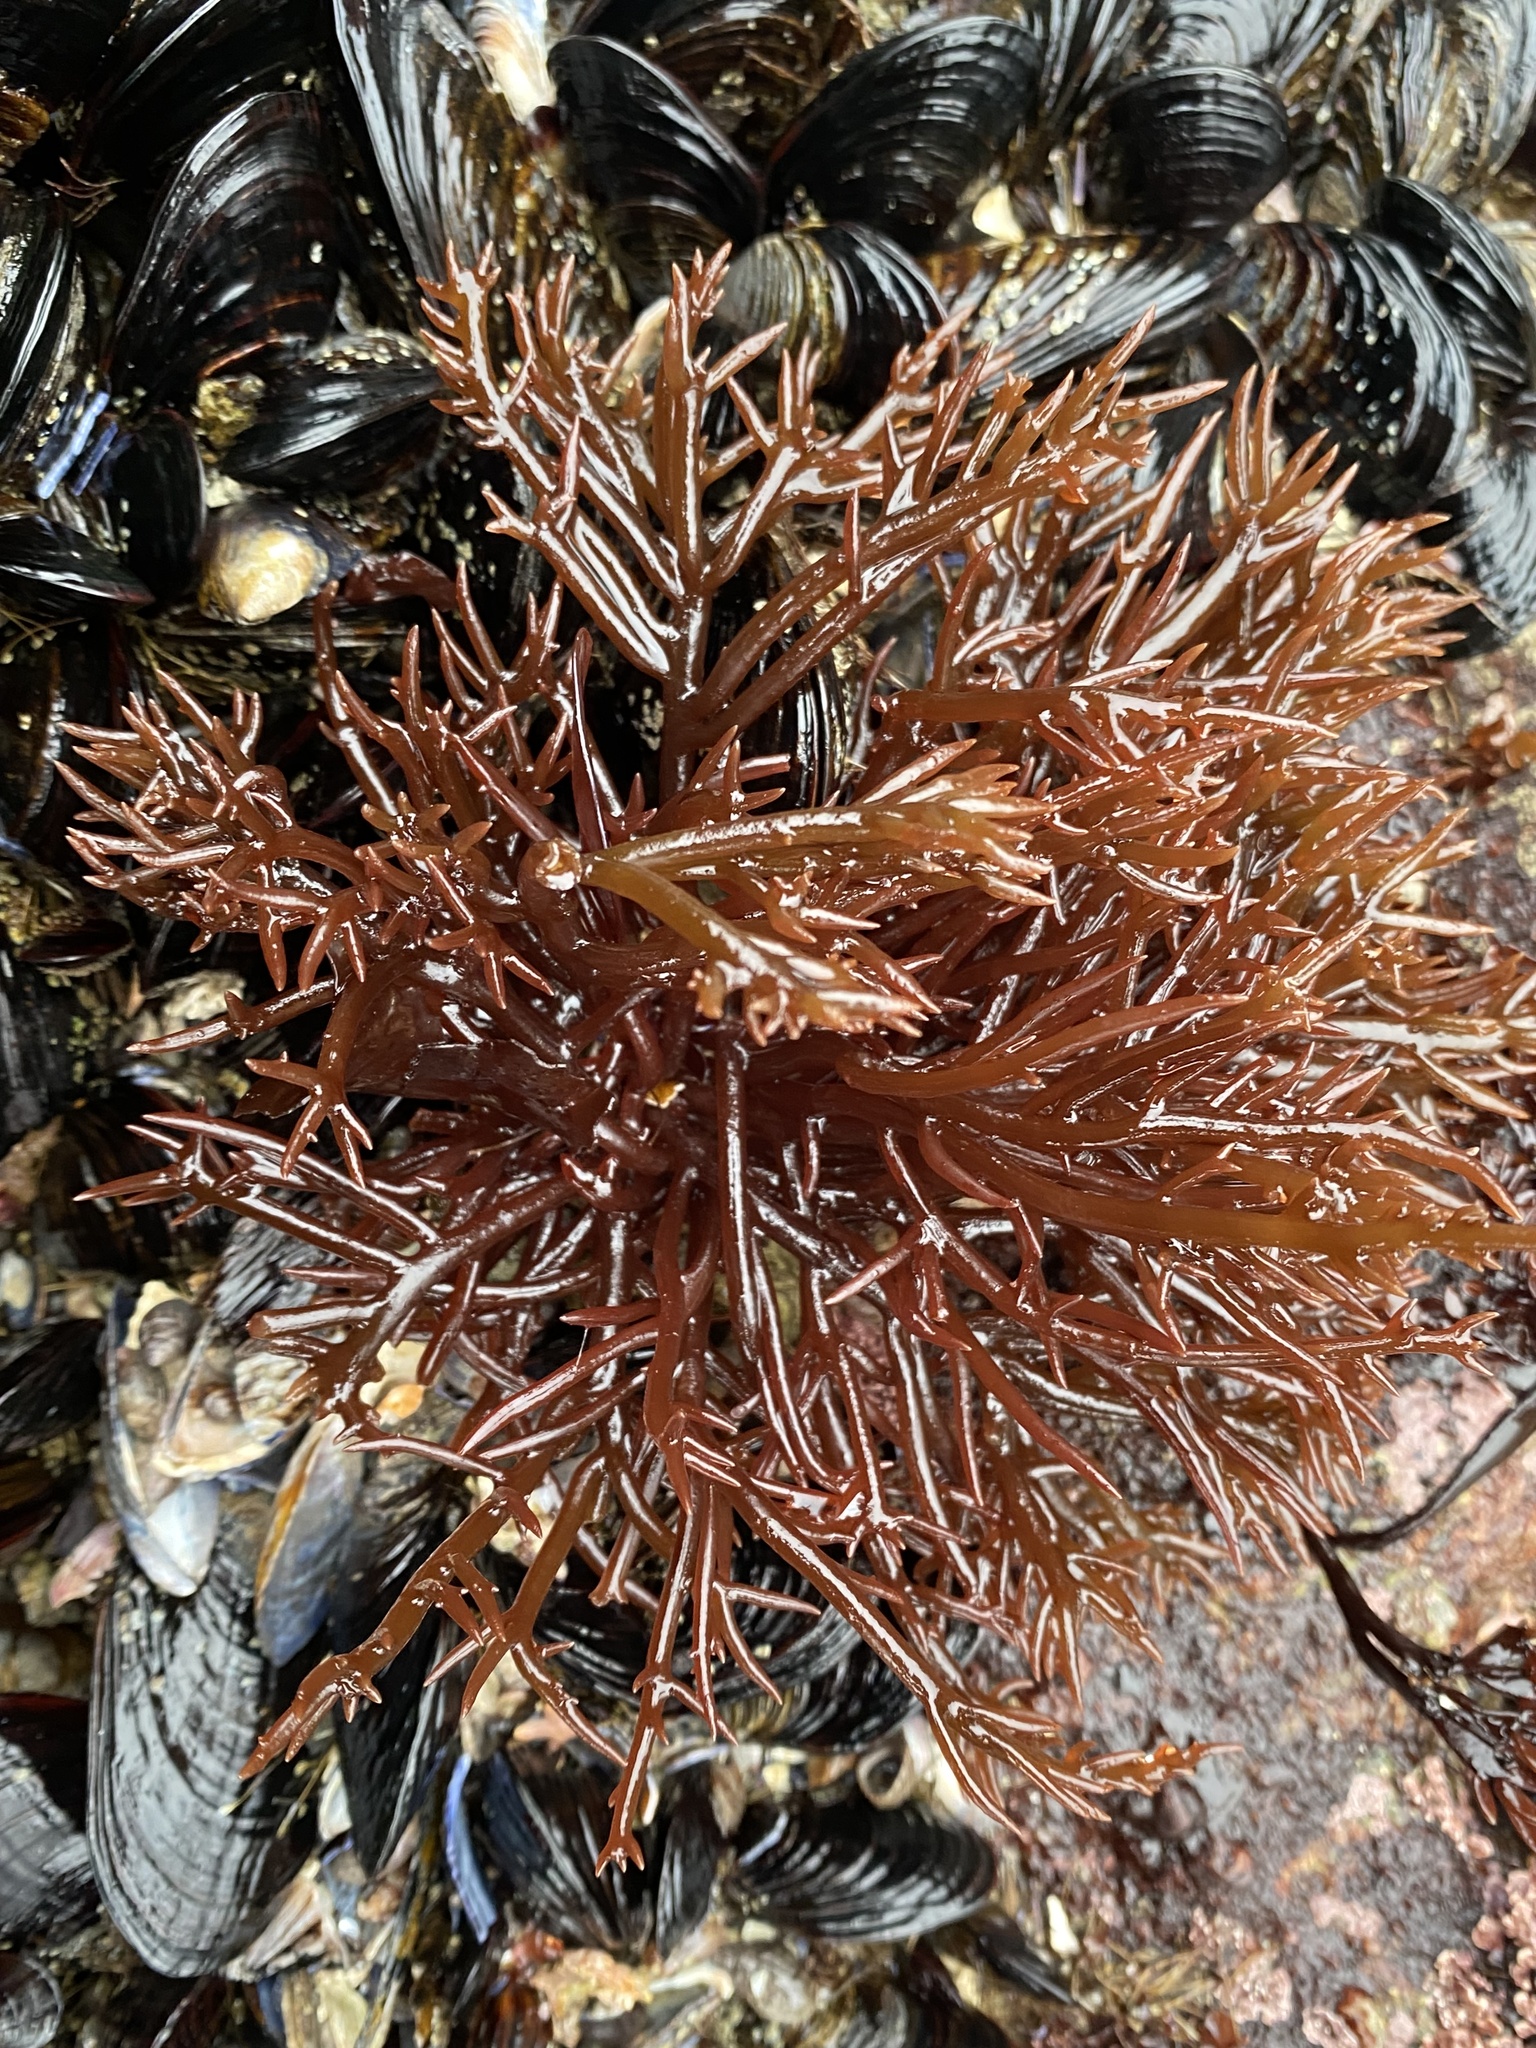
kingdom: Plantae
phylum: Rhodophyta
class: Florideophyceae
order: Gigartinales
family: Solieriaceae
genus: Sarcodiotheca
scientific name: Sarcodiotheca gaudichaudii
